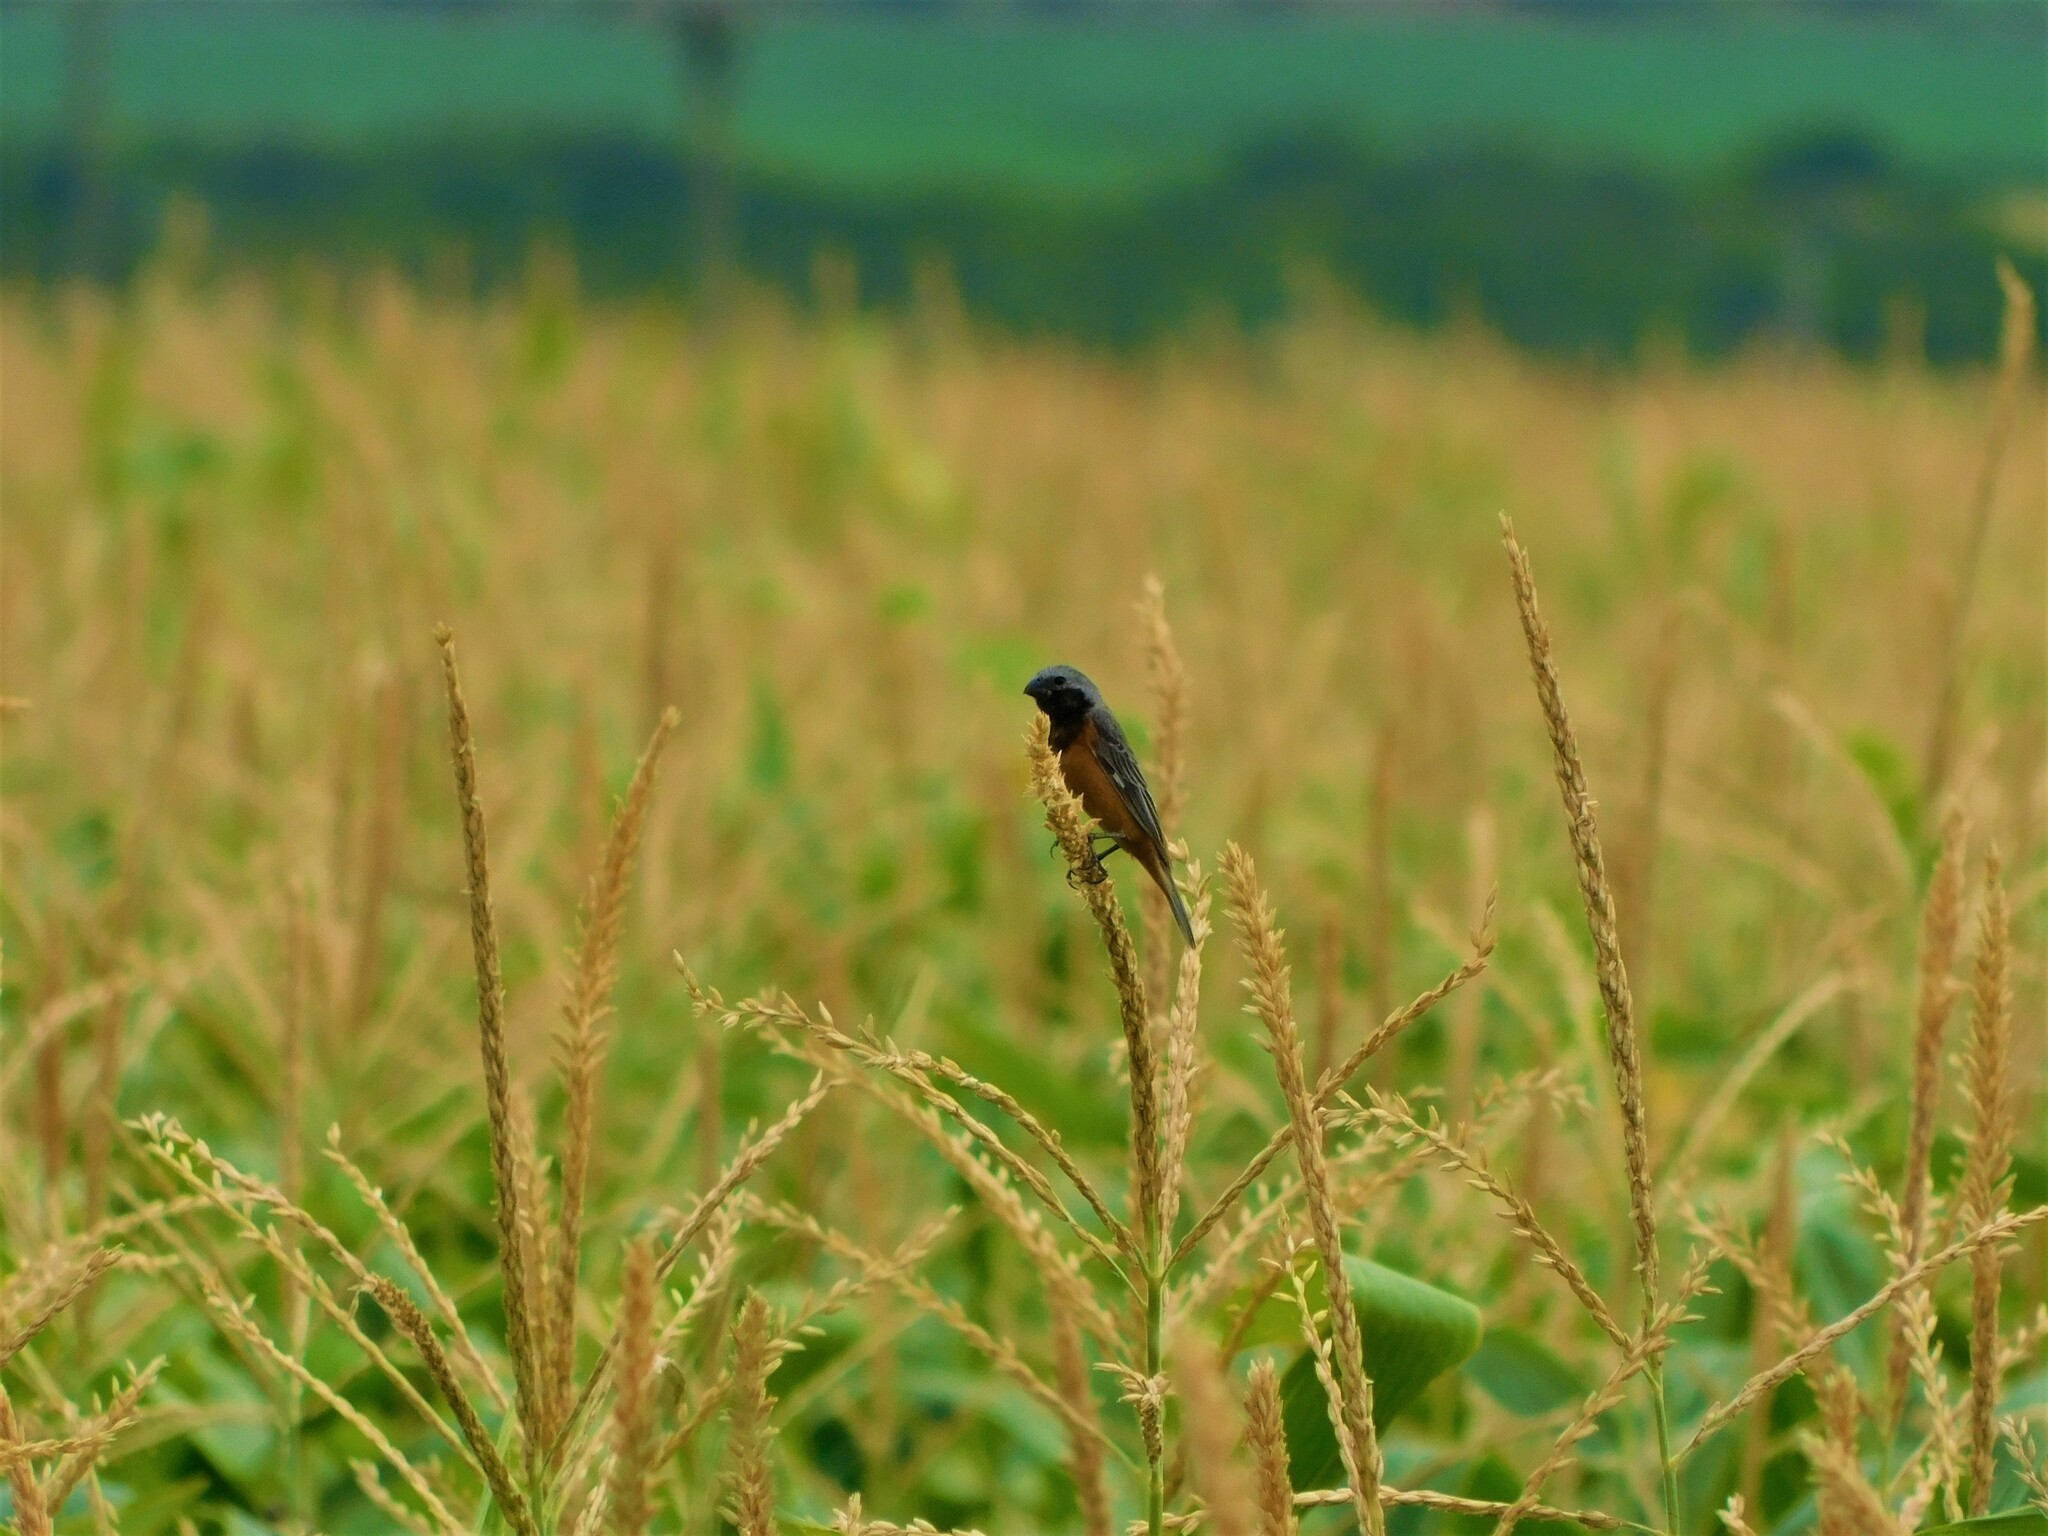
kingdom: Animalia
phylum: Chordata
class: Aves
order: Passeriformes
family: Thraupidae
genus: Sporophila
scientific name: Sporophila ruficollis
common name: Dark-throated seedeater
